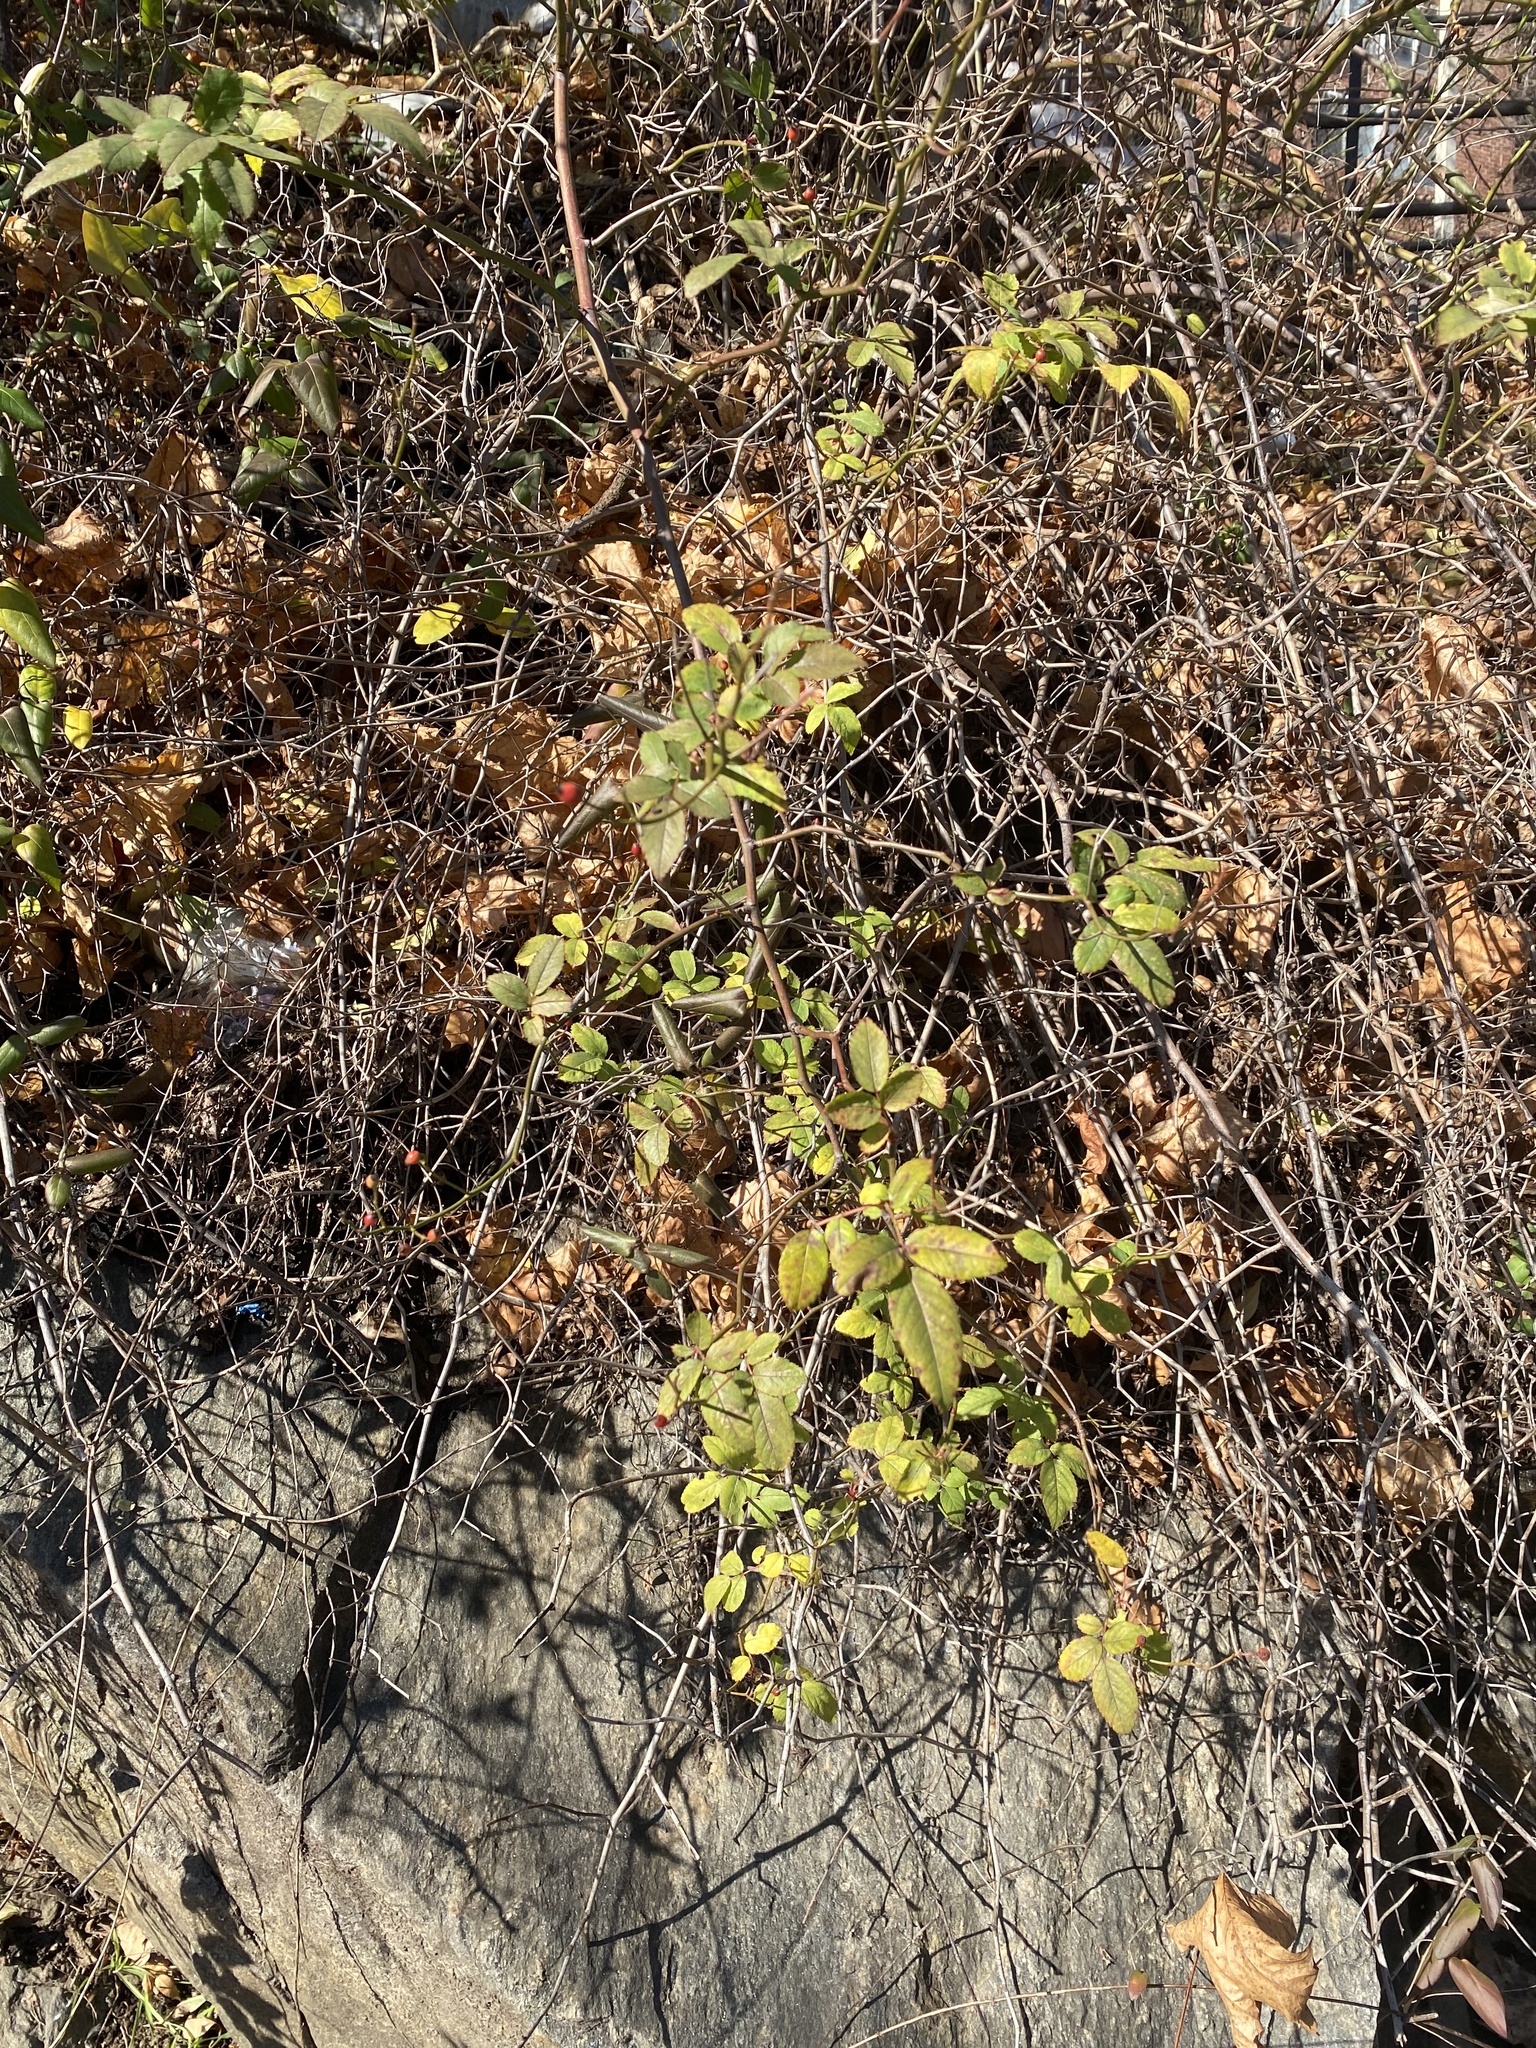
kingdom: Plantae
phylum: Tracheophyta
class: Magnoliopsida
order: Rosales
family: Rosaceae
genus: Rosa
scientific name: Rosa multiflora
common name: Multiflora rose
